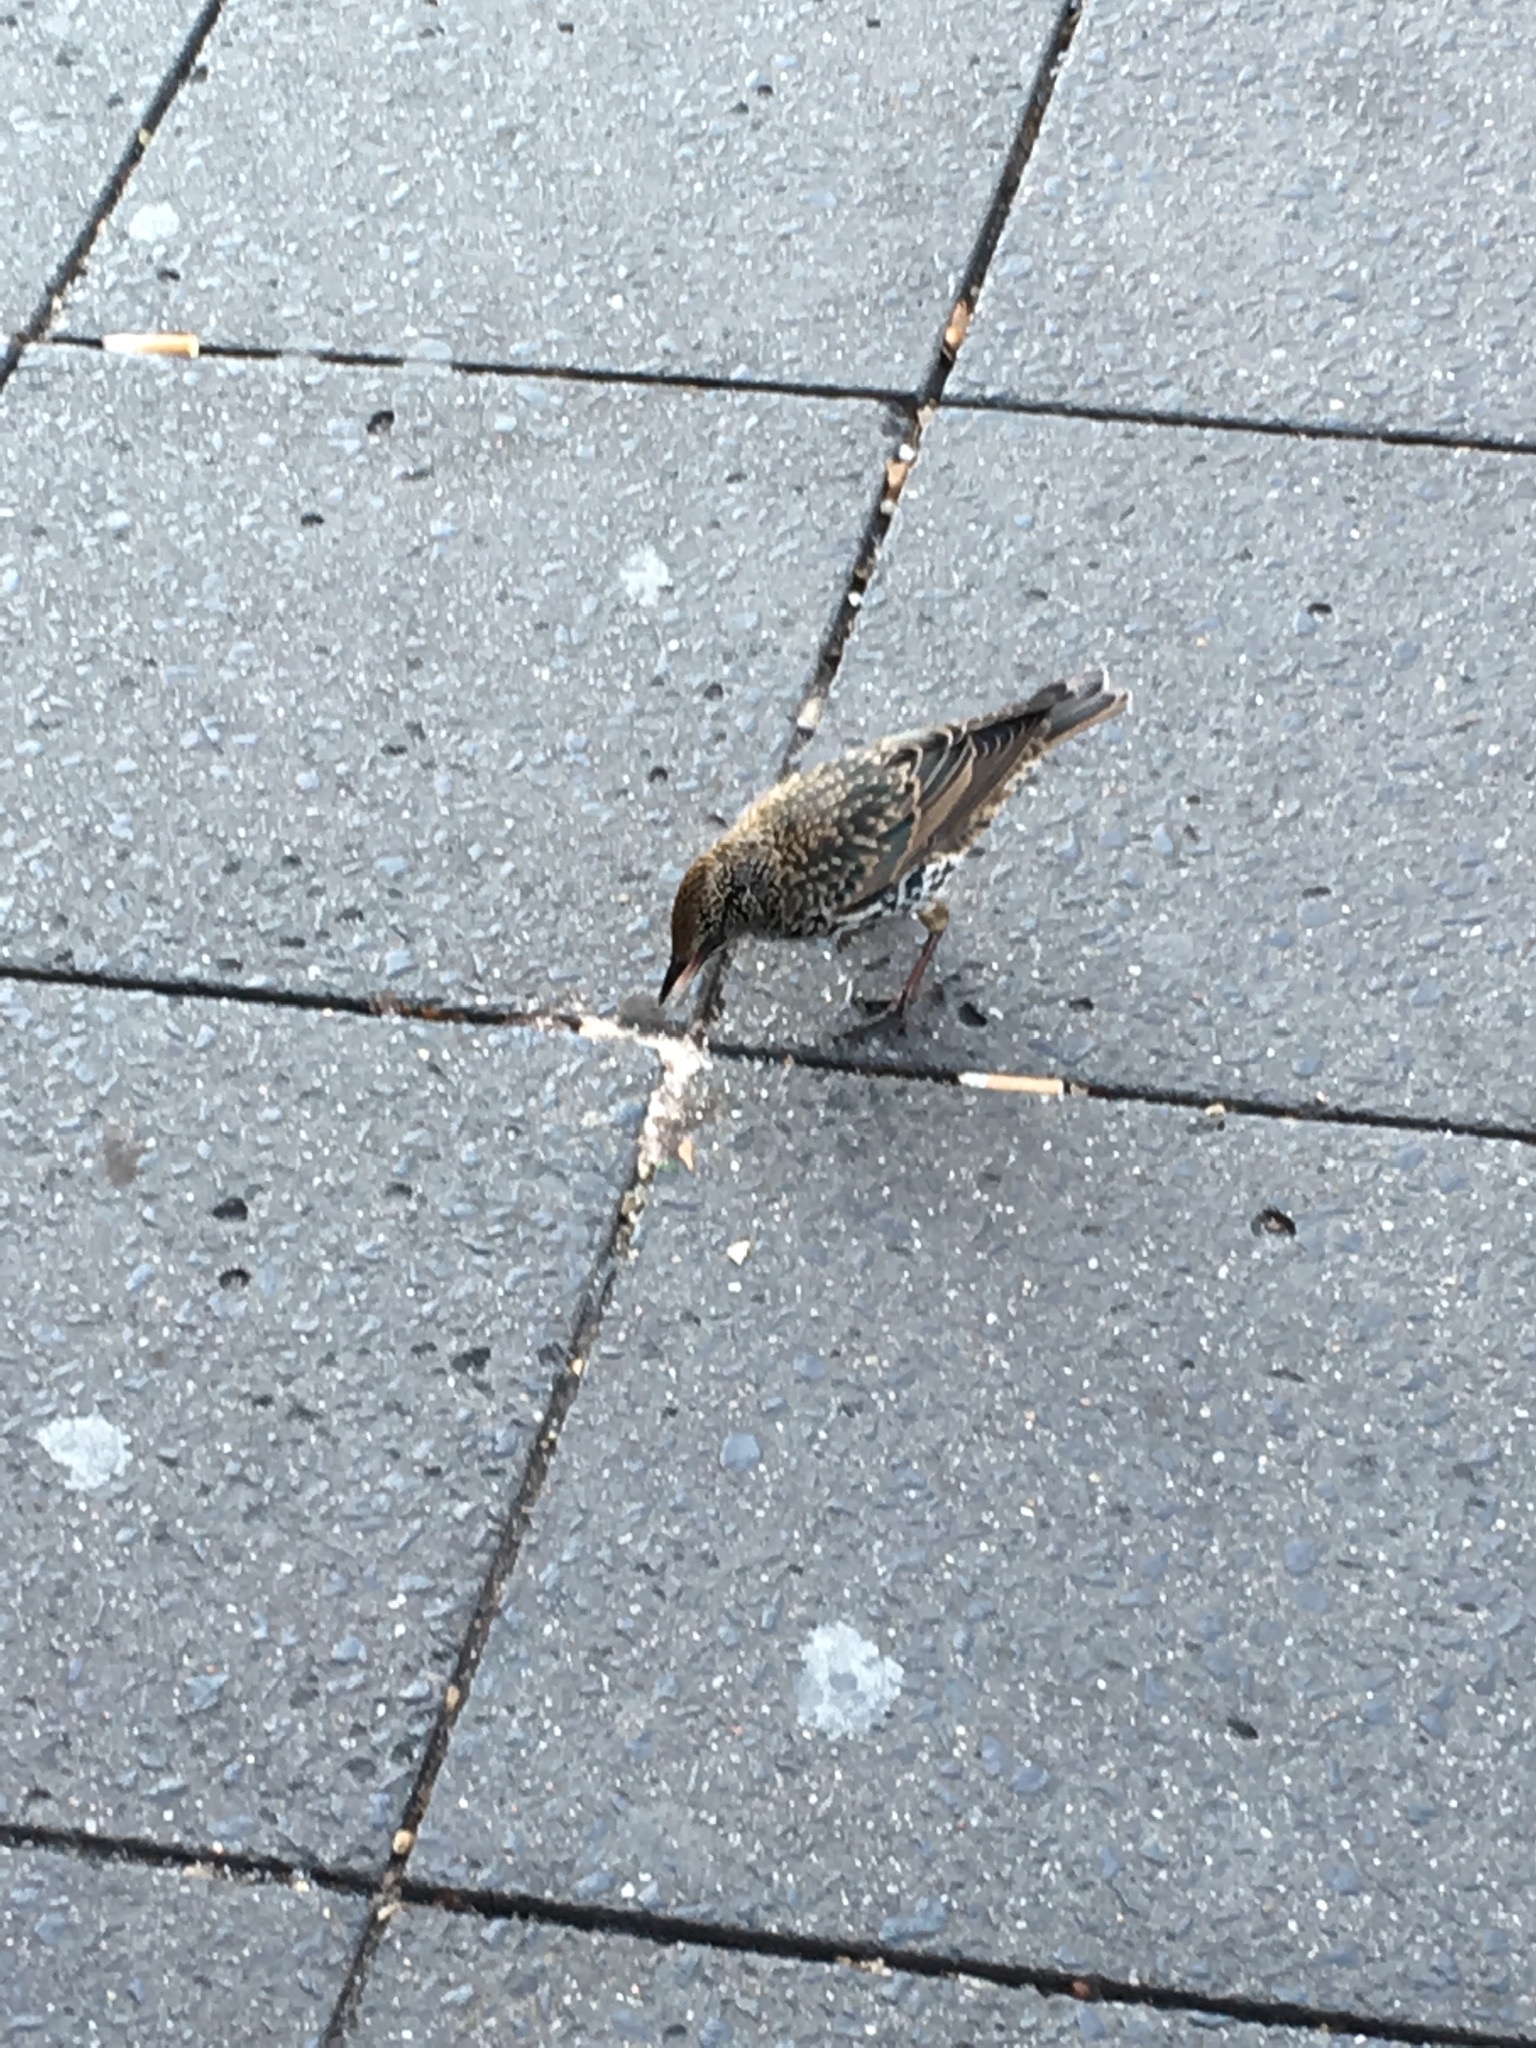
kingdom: Animalia
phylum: Chordata
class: Aves
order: Passeriformes
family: Sturnidae
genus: Sturnus
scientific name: Sturnus vulgaris
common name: Common starling
